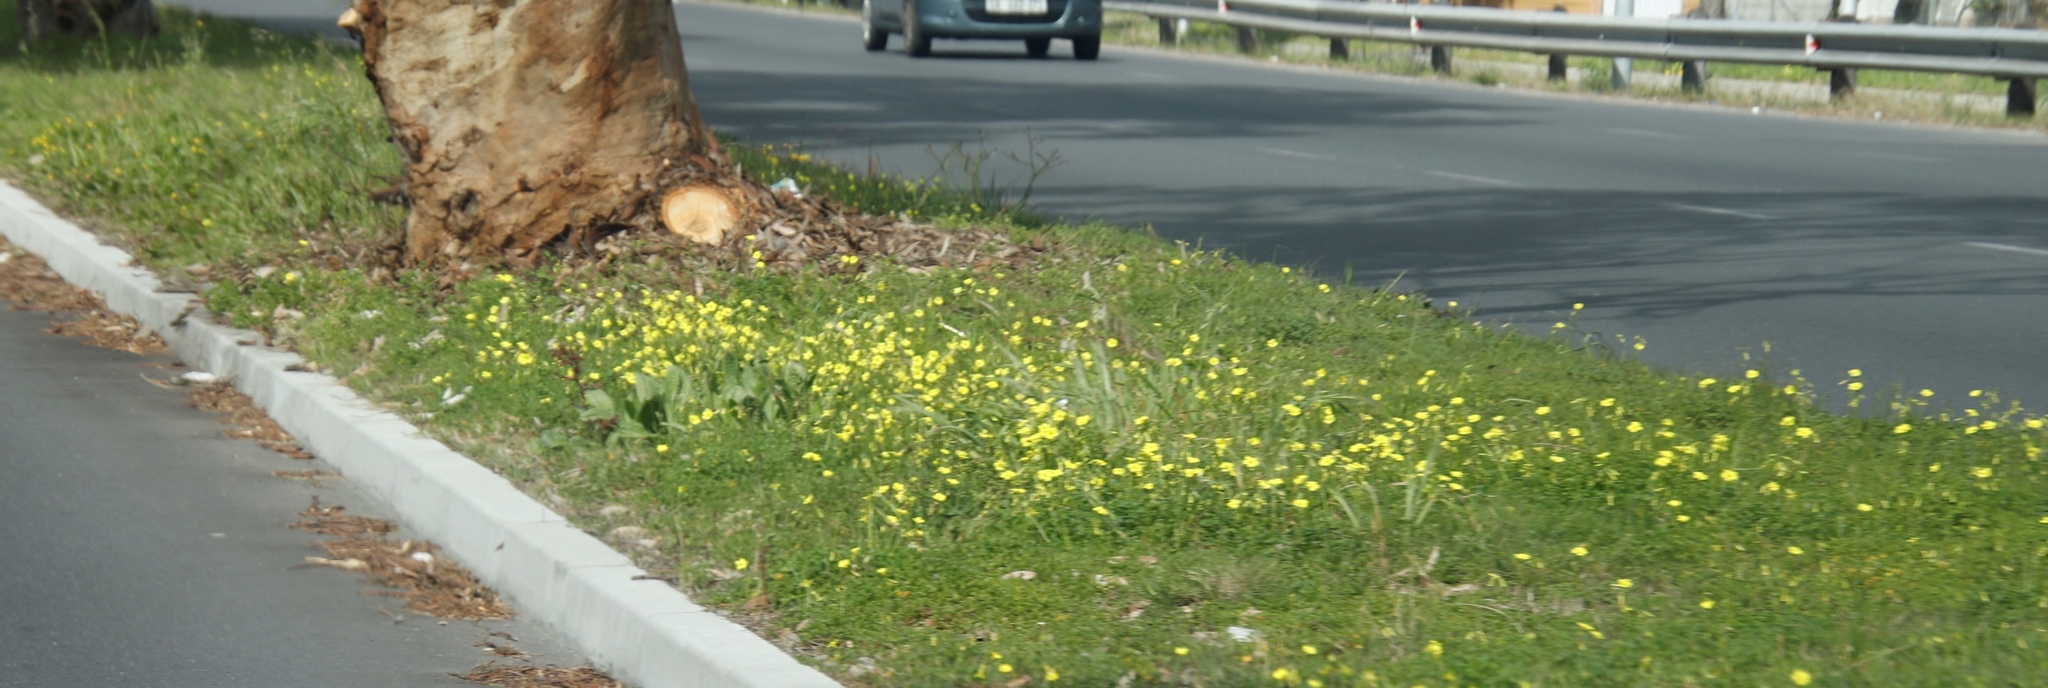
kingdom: Plantae
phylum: Tracheophyta
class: Magnoliopsida
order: Oxalidales
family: Oxalidaceae
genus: Oxalis
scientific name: Oxalis pes-caprae
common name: Bermuda-buttercup
